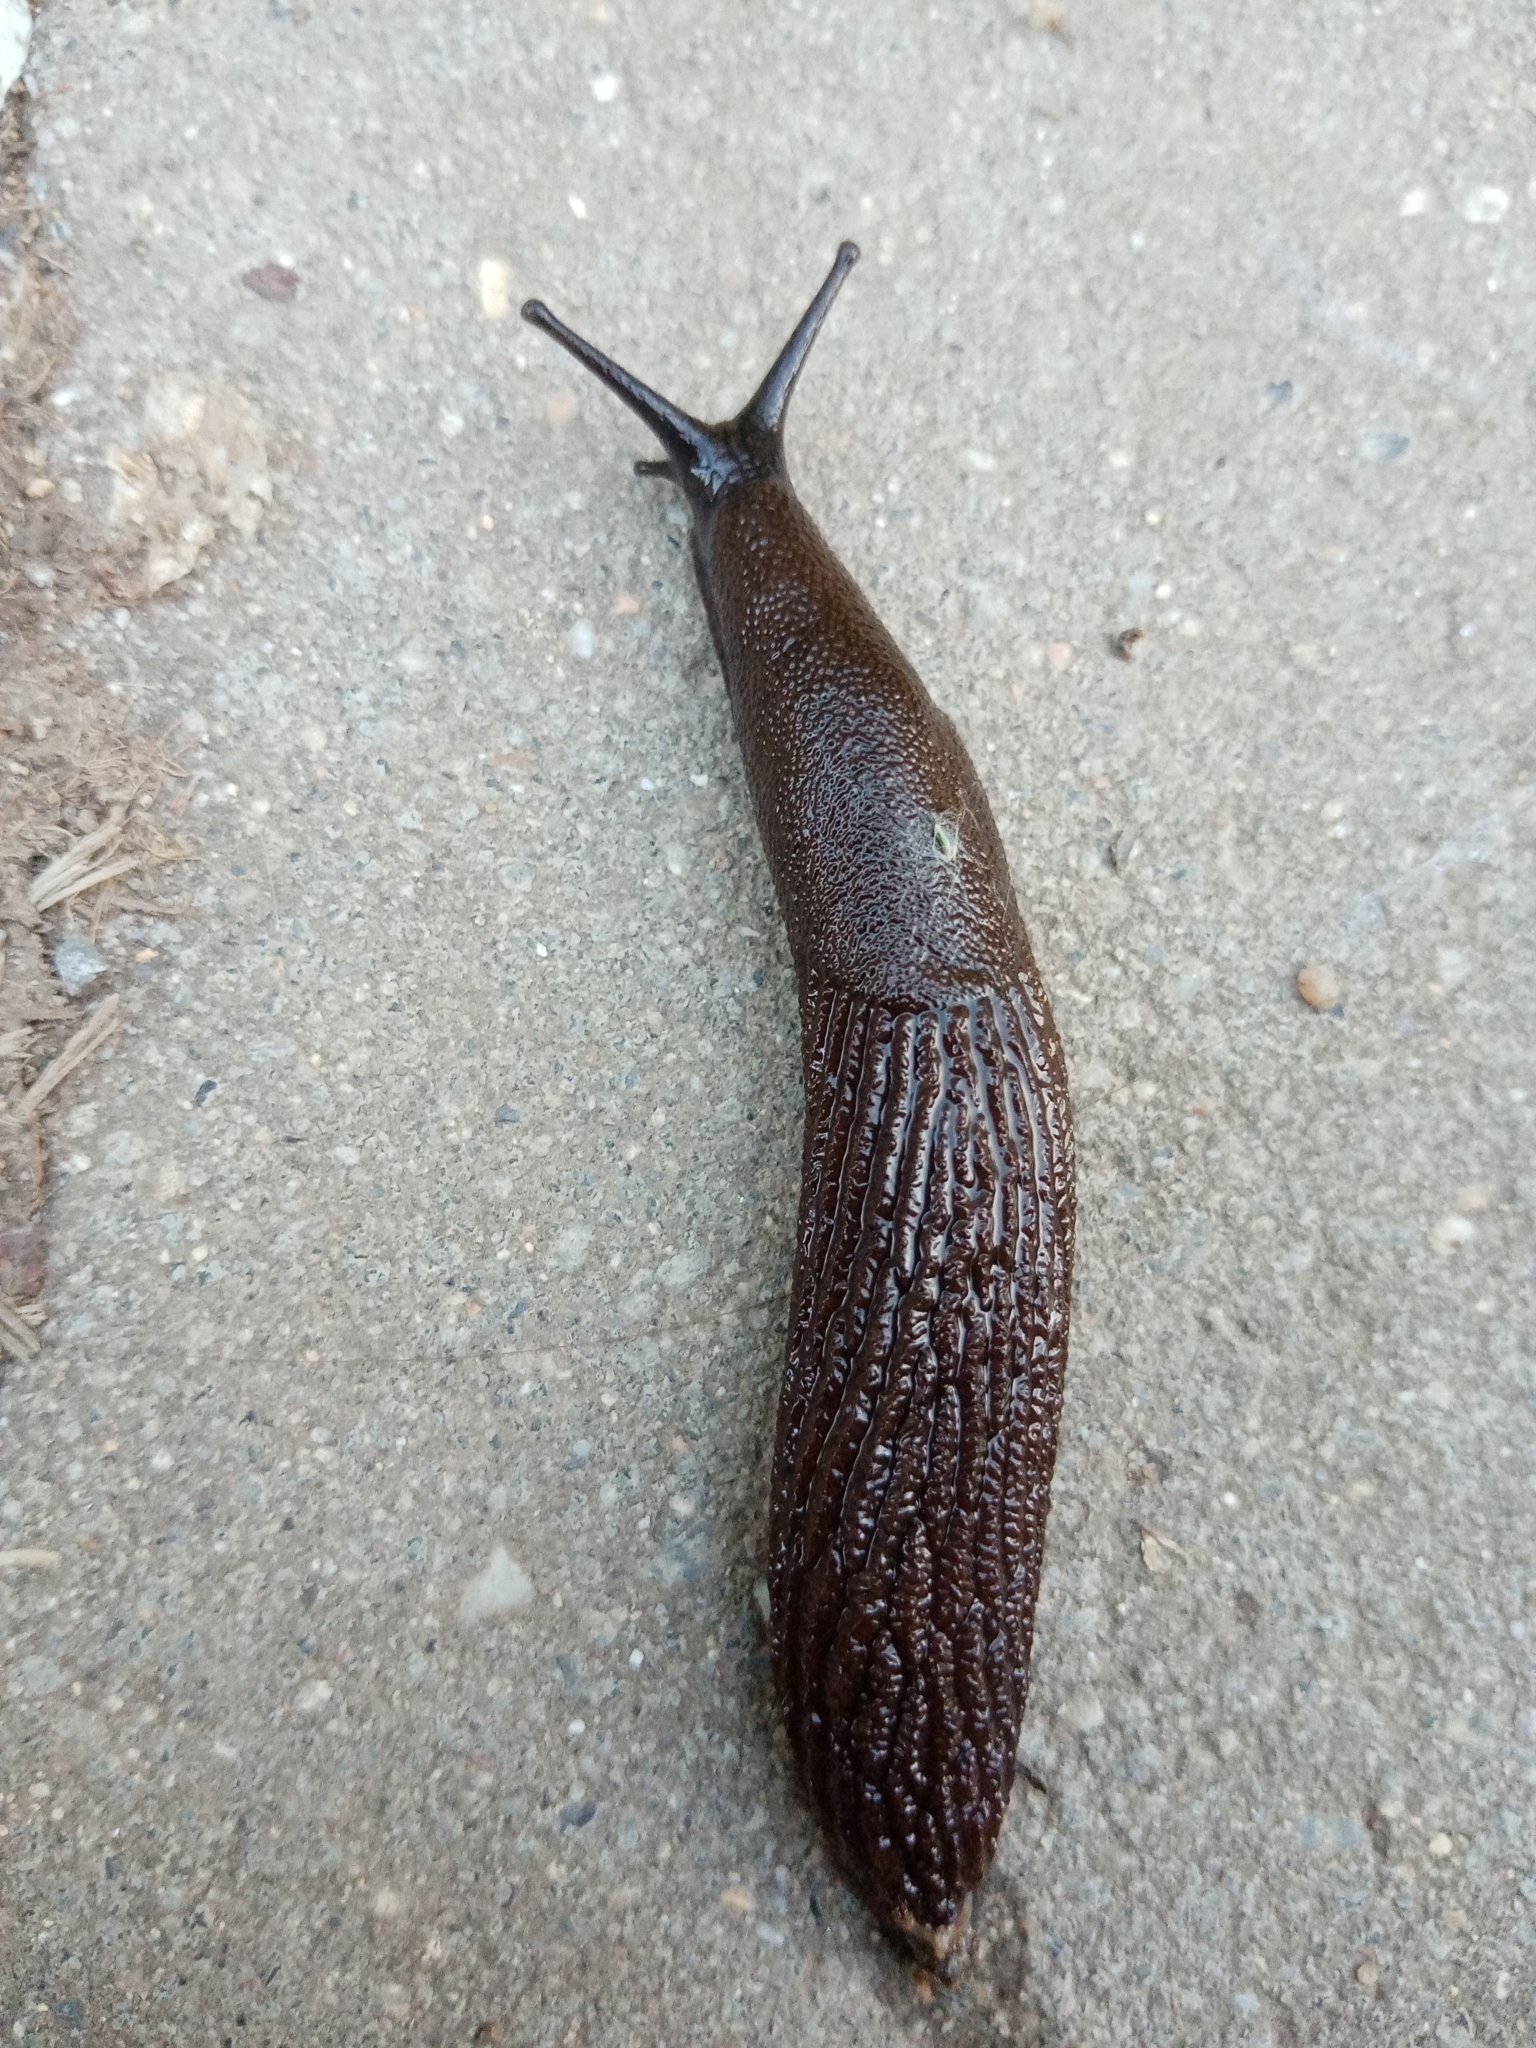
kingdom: Animalia
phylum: Mollusca
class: Gastropoda
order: Stylommatophora
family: Arionidae
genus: Arion
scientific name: Arion vulgaris
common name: Lusitanian slug
